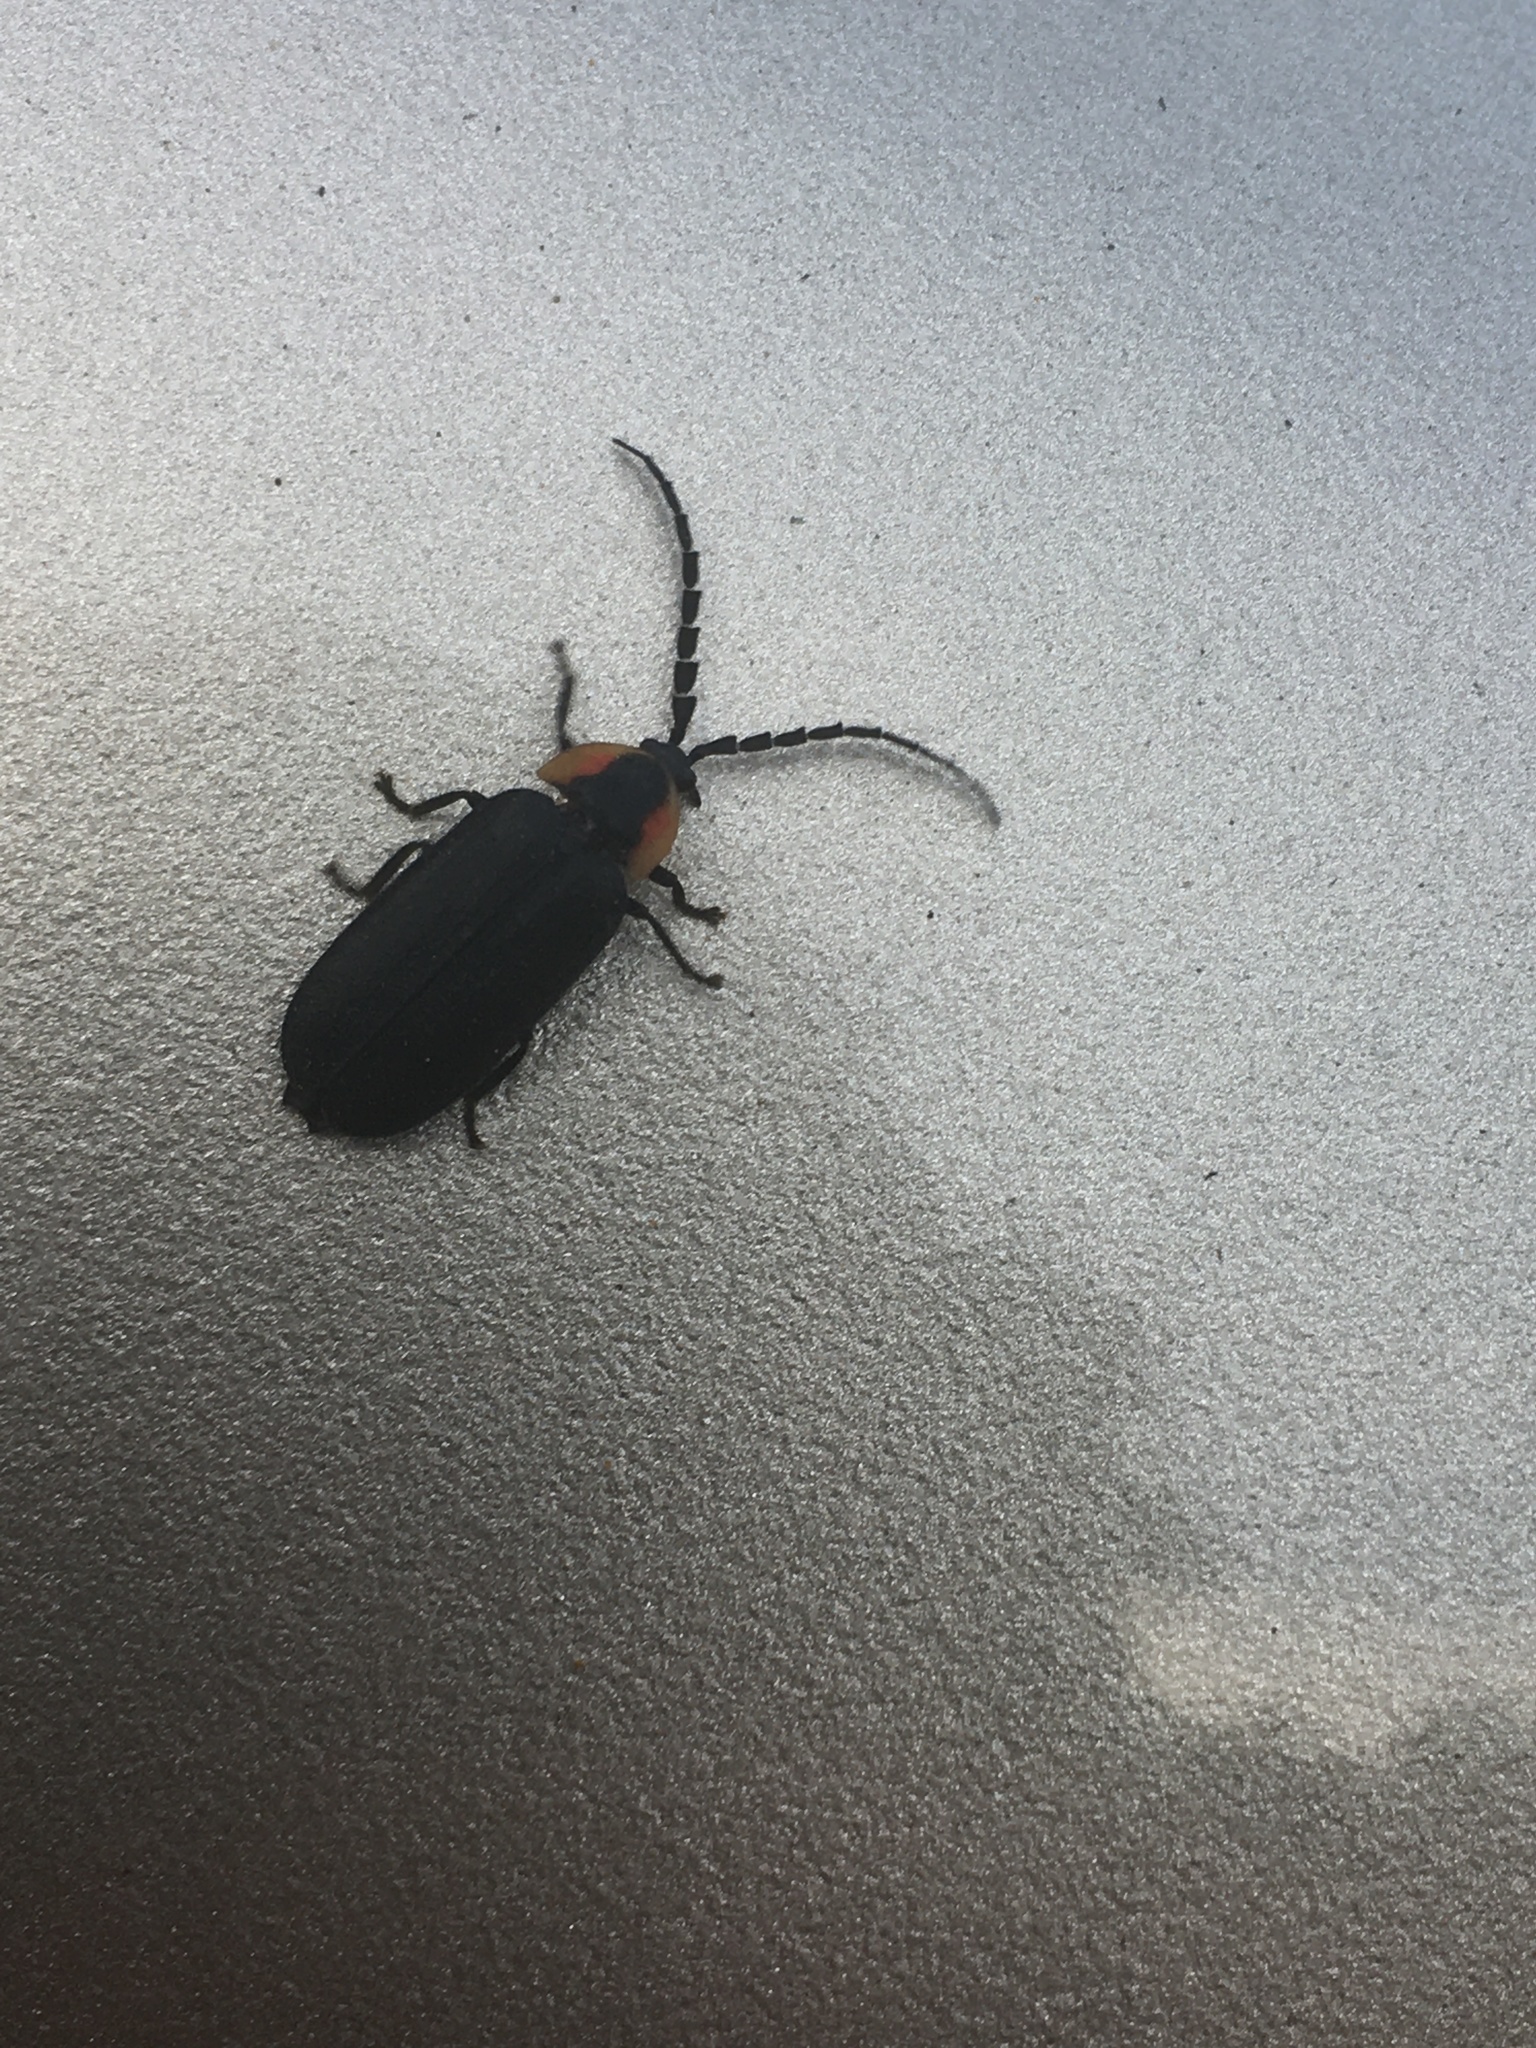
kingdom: Animalia
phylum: Arthropoda
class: Insecta
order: Coleoptera
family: Lampyridae
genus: Lucidota
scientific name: Lucidota atra
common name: Black firefly
